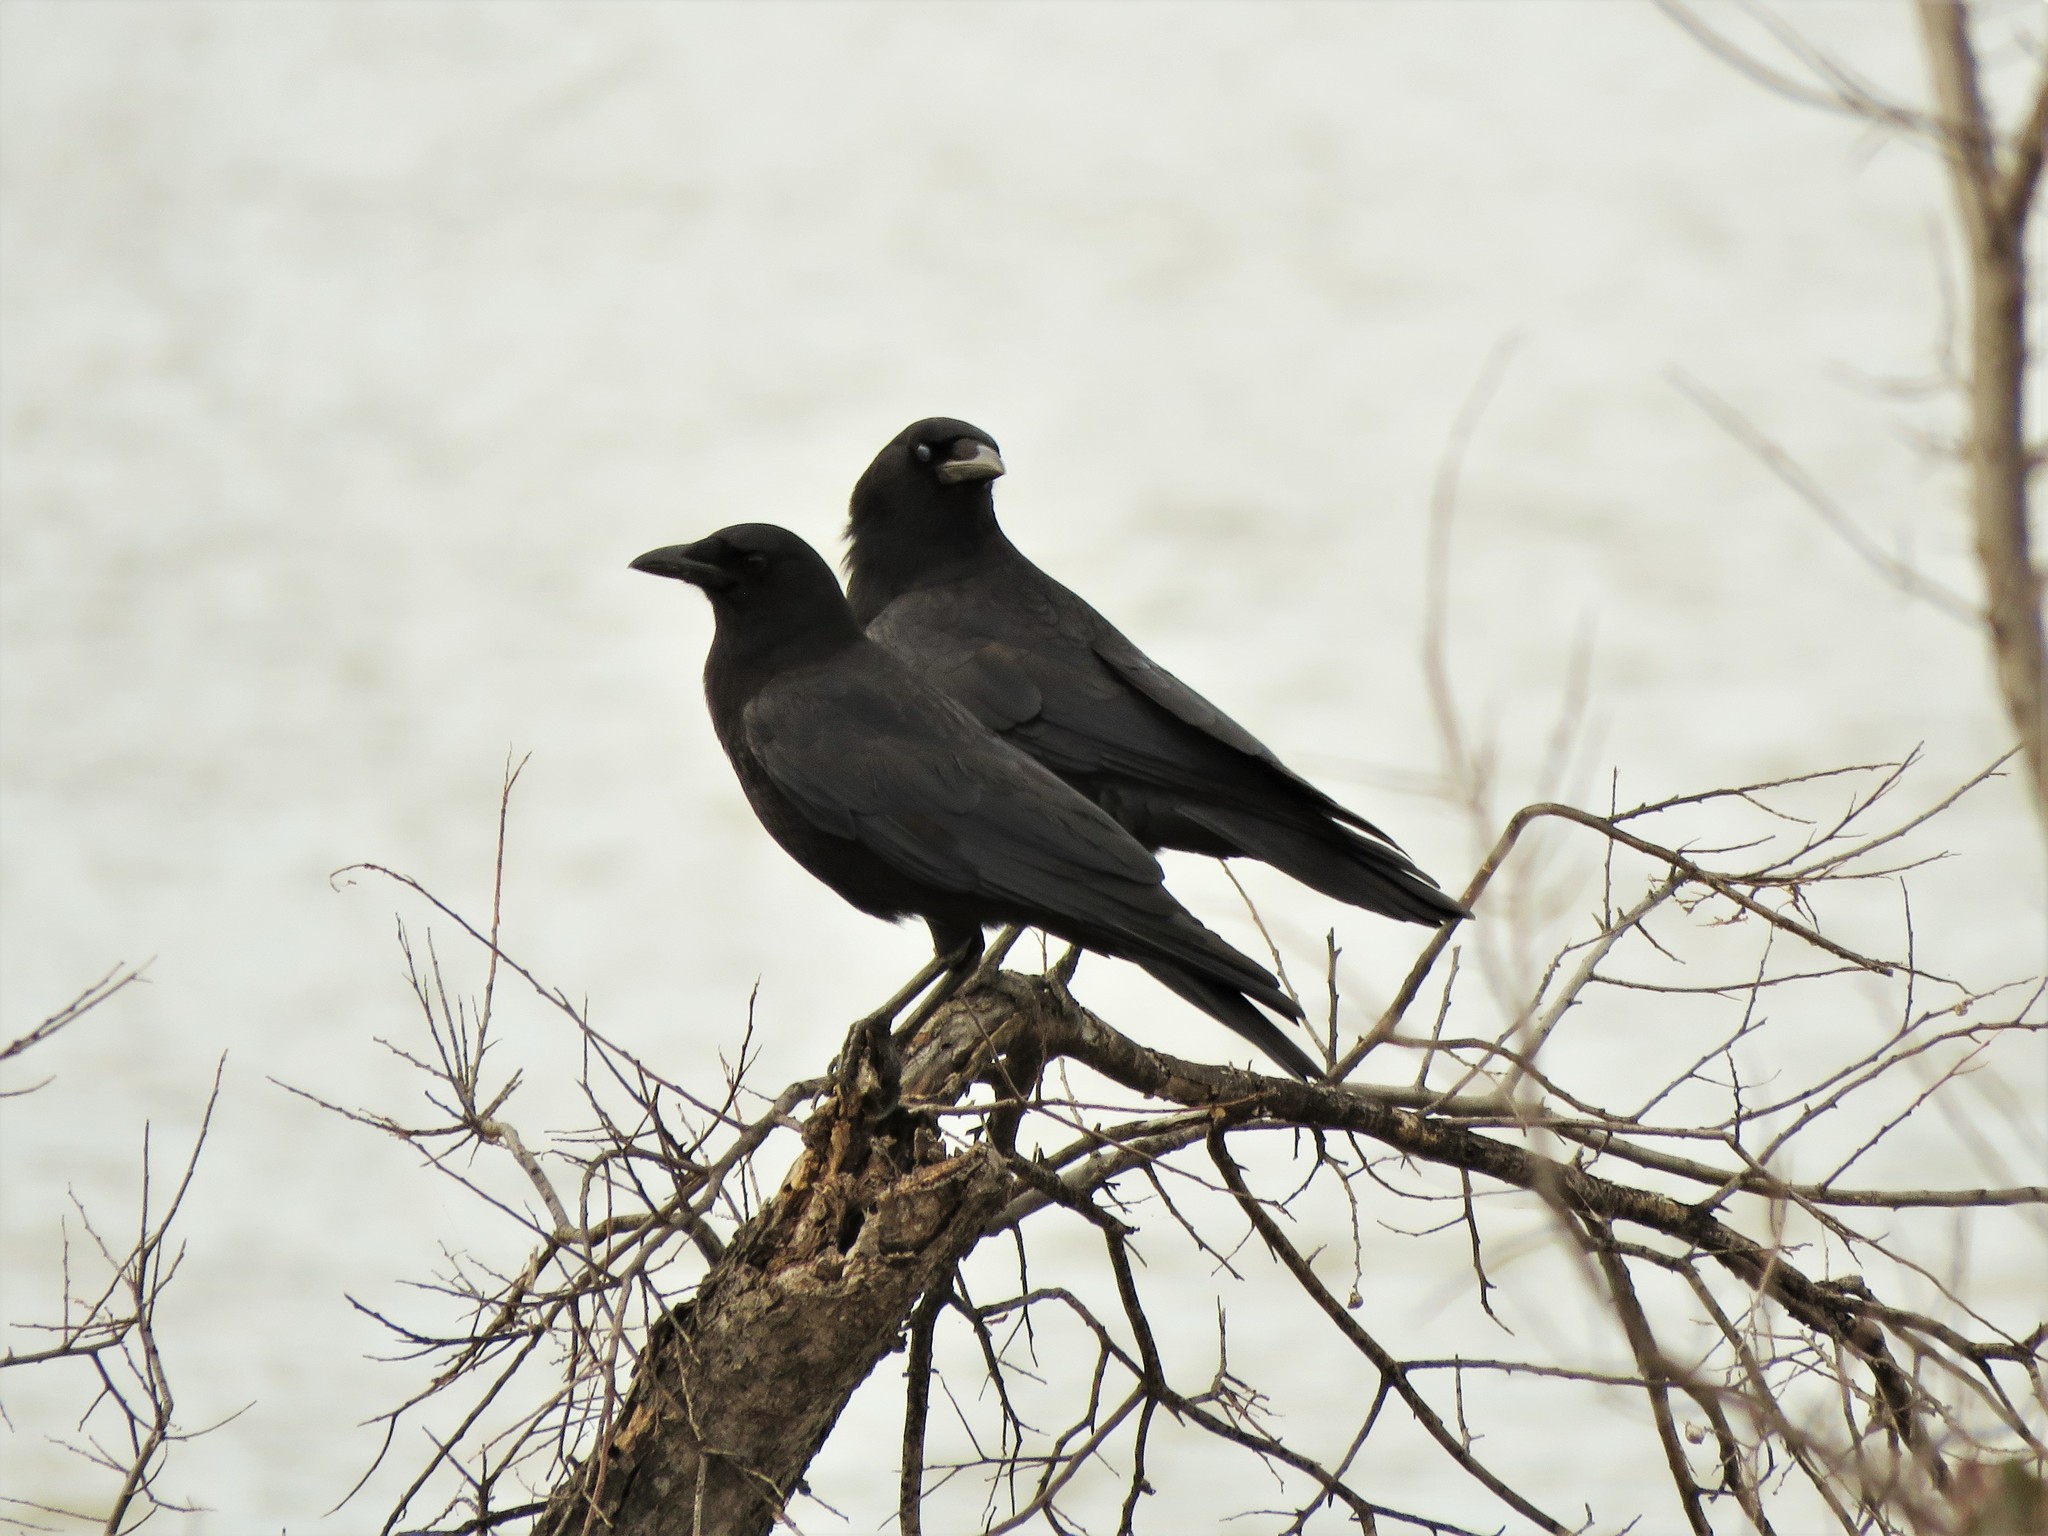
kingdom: Animalia
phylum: Chordata
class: Aves
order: Passeriformes
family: Corvidae
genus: Corvus
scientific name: Corvus brachyrhynchos
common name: American crow
